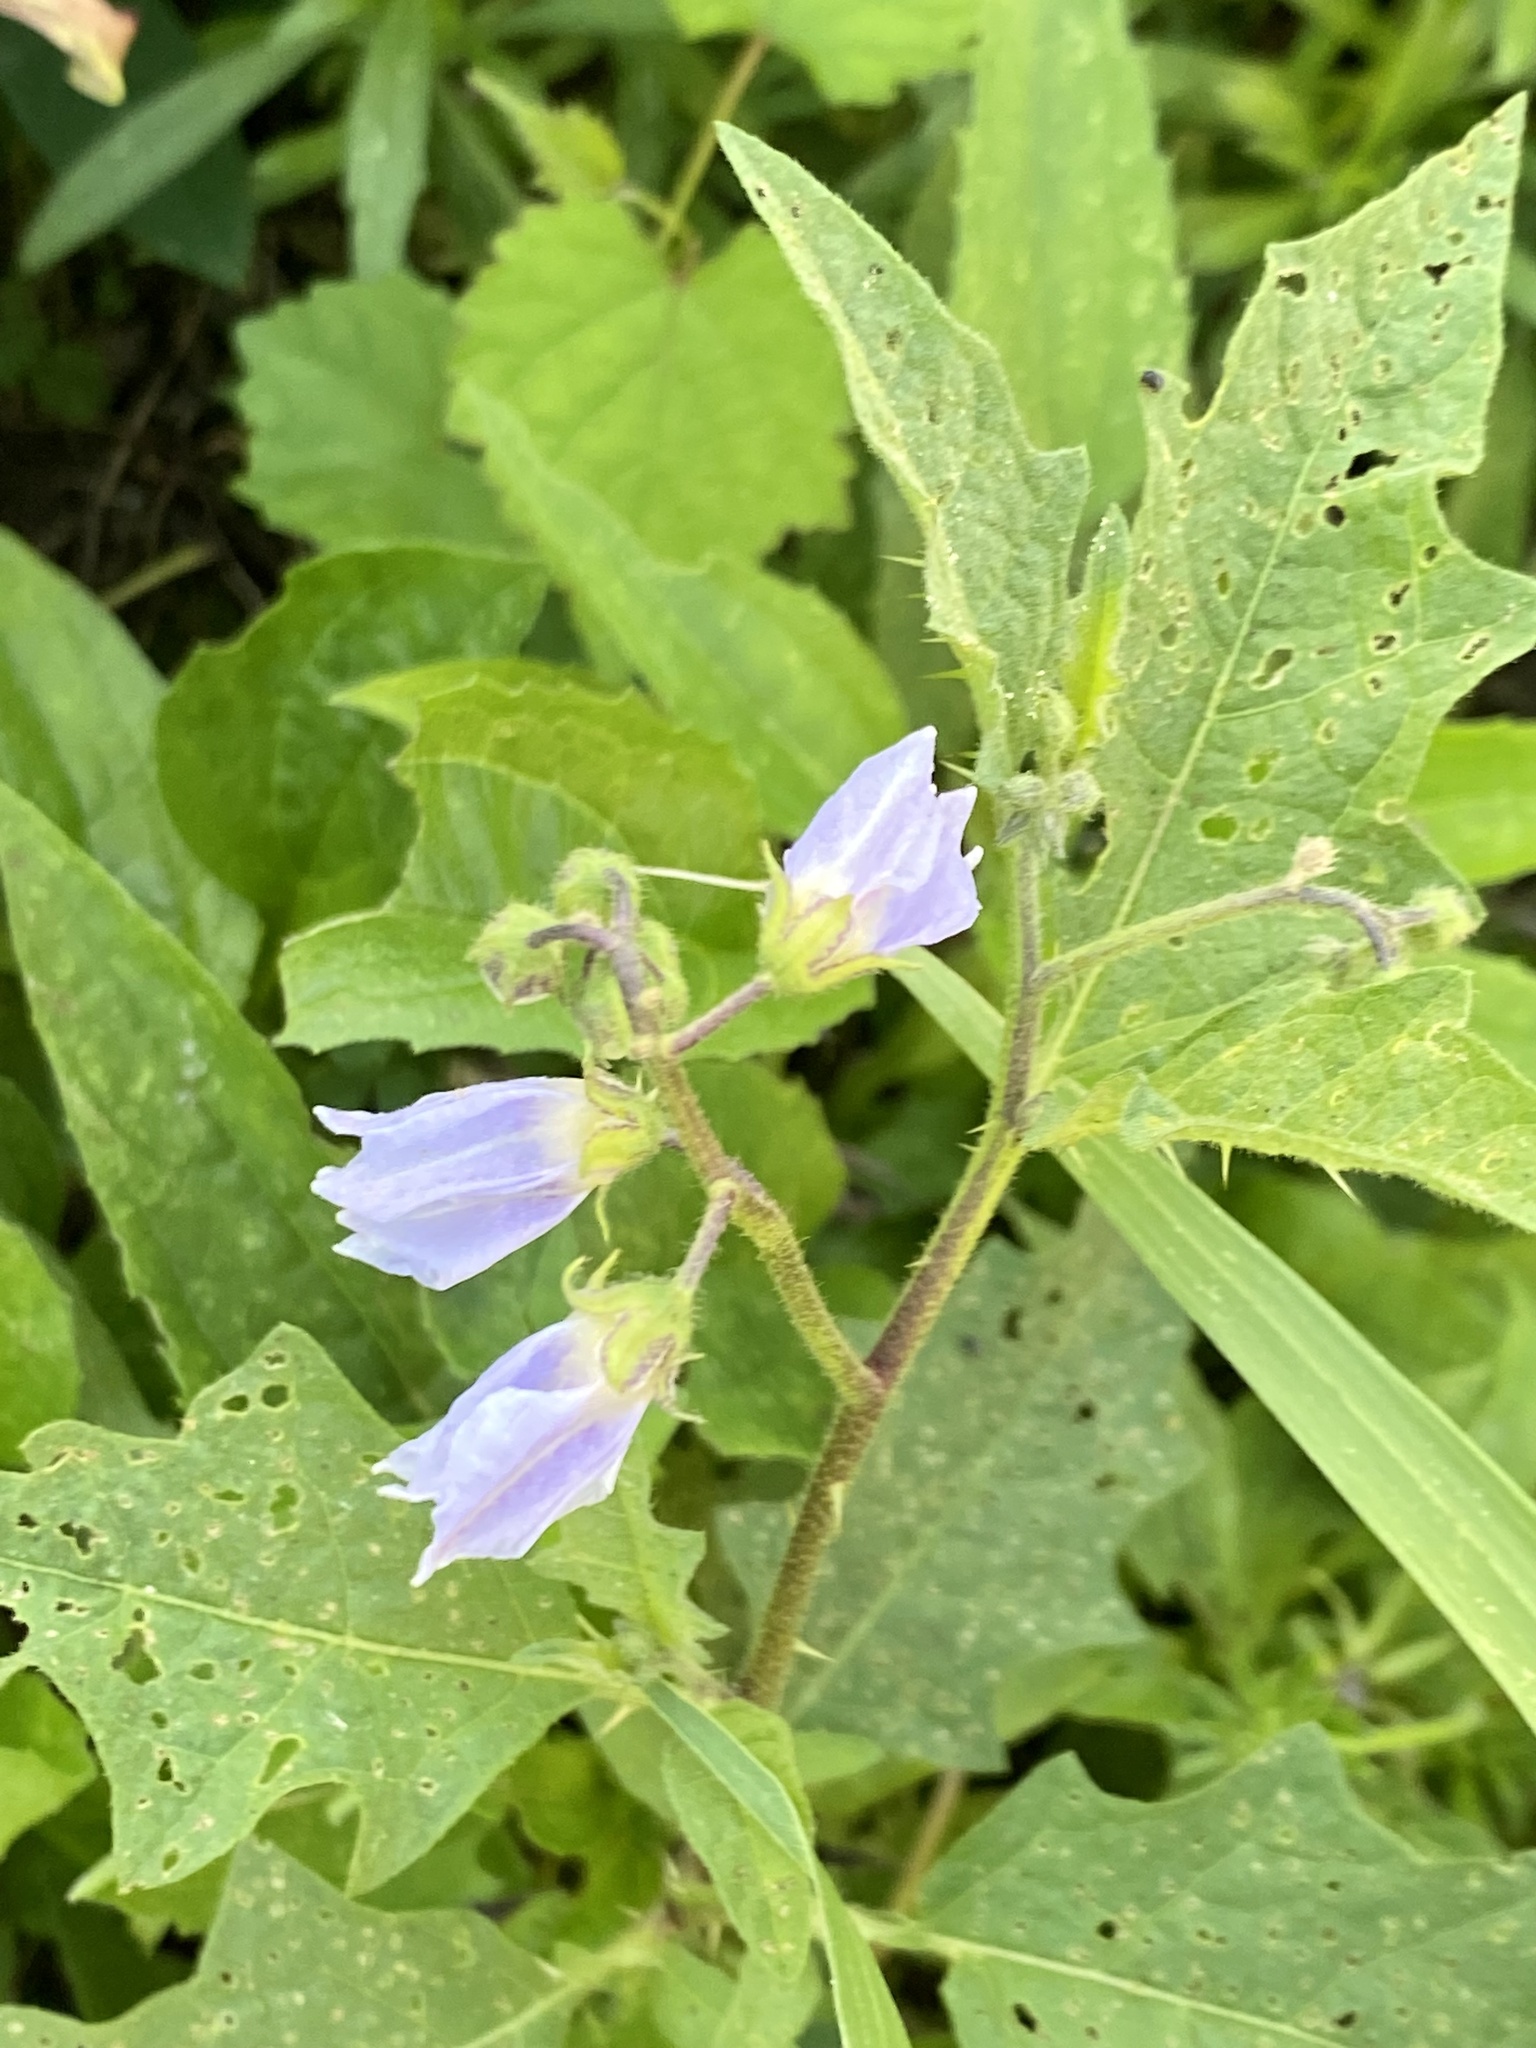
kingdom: Plantae
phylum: Tracheophyta
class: Magnoliopsida
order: Solanales
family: Solanaceae
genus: Solanum
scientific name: Solanum carolinense
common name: Horse-nettle
